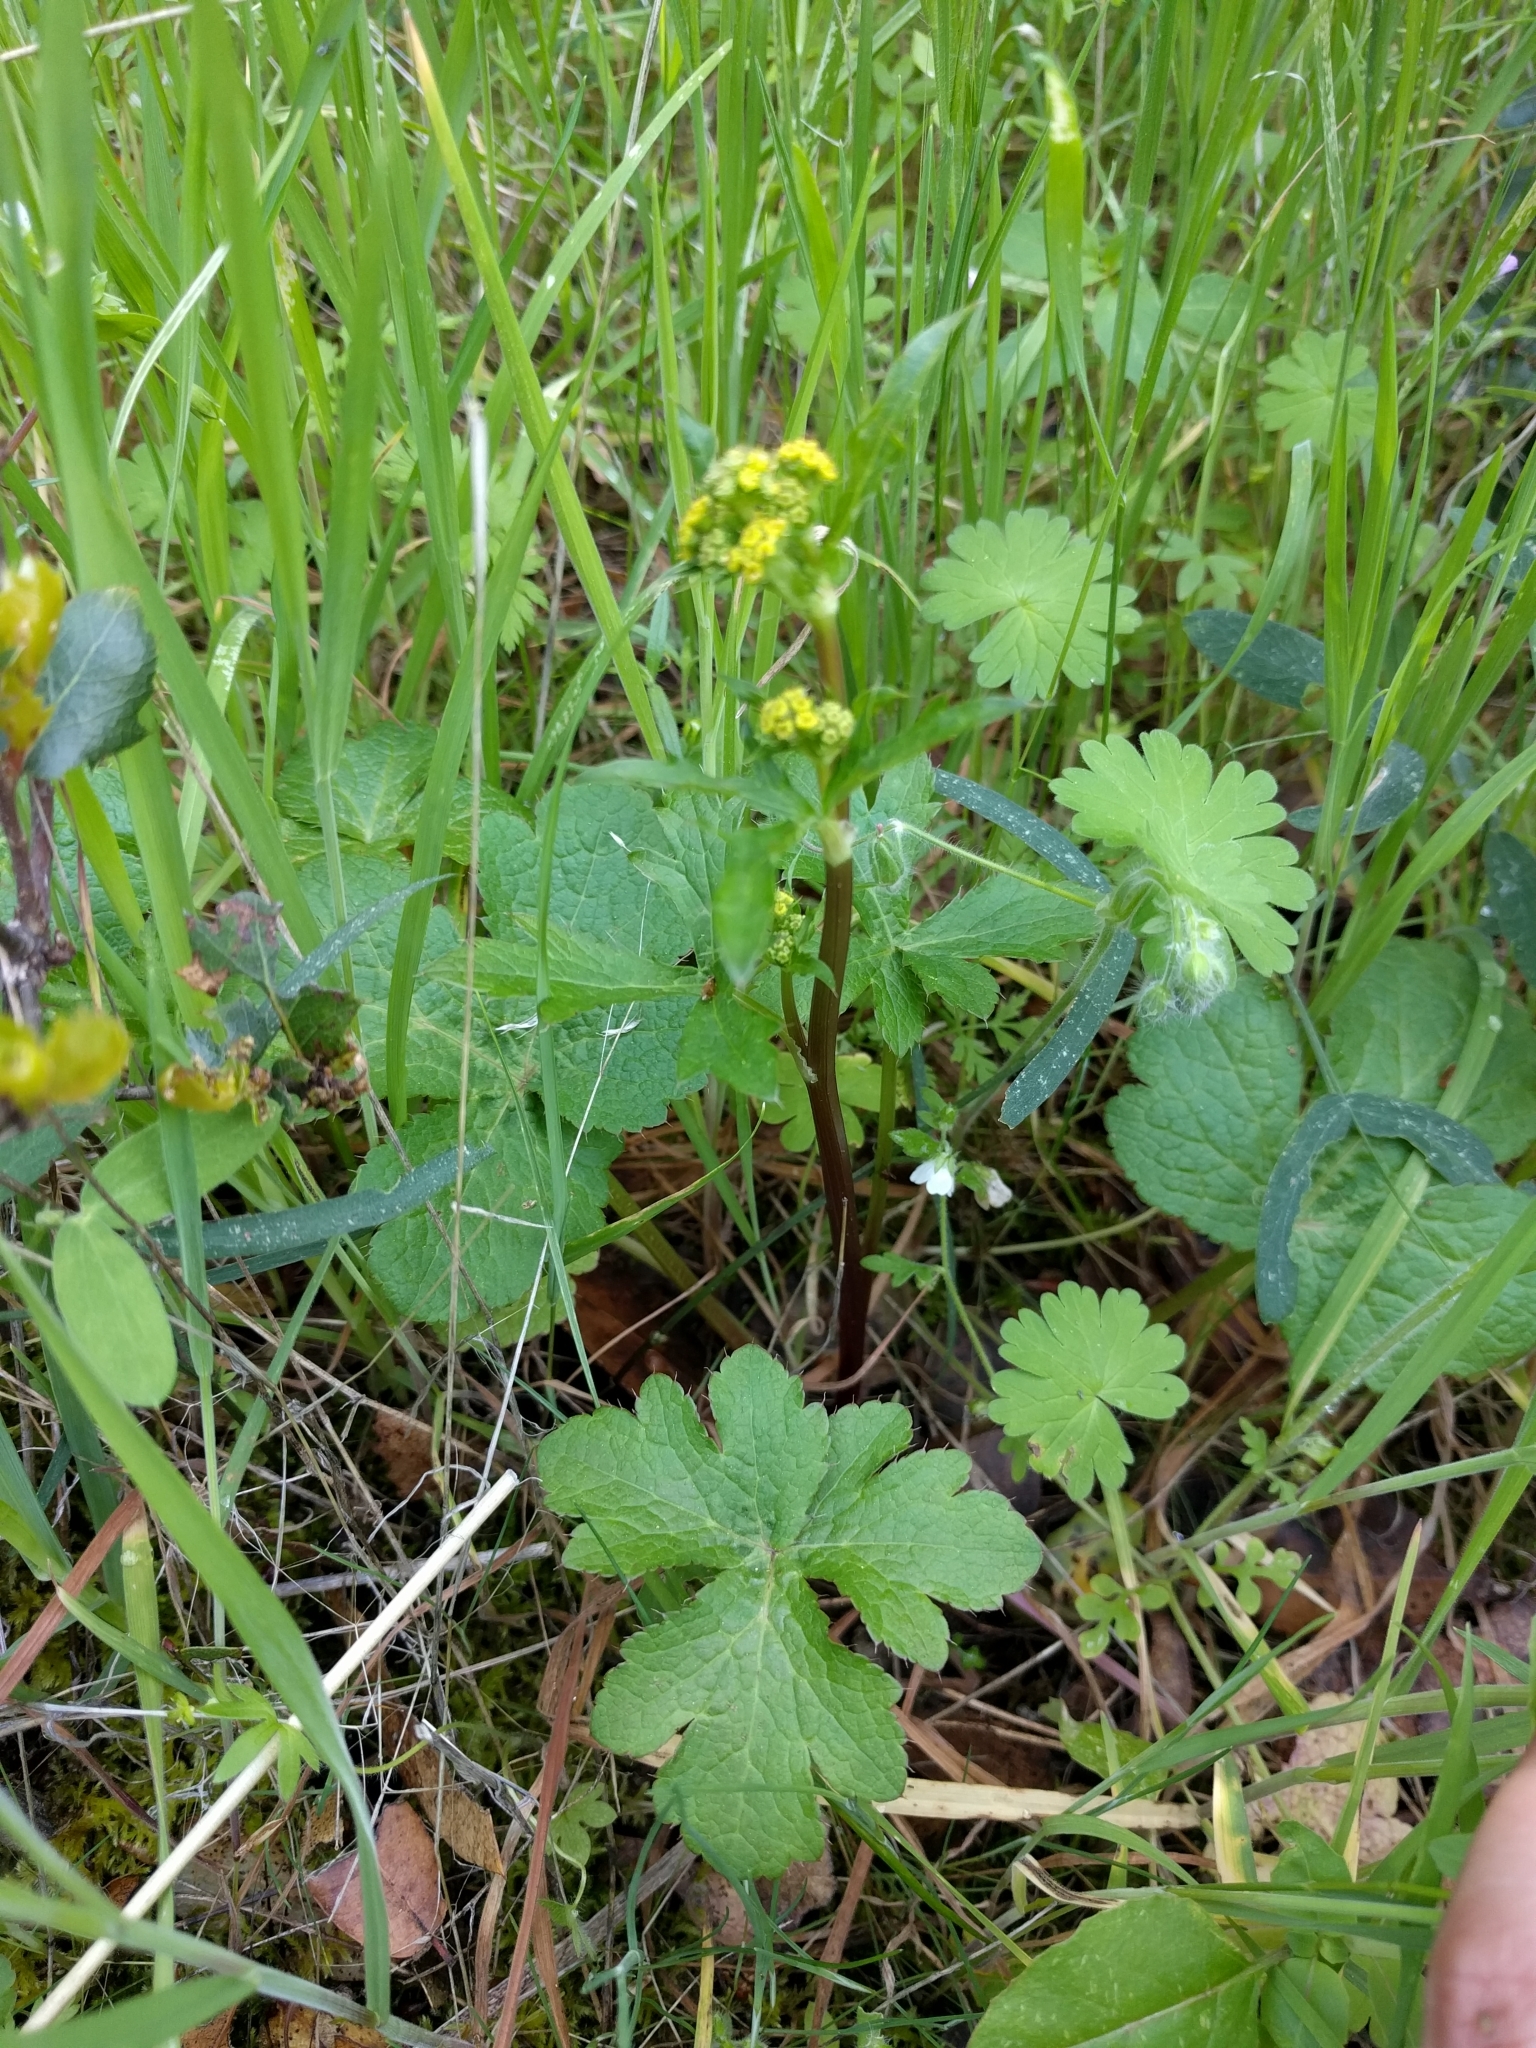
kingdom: Plantae
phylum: Tracheophyta
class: Magnoliopsida
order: Apiales
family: Apiaceae
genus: Sanicula
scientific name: Sanicula crassicaulis
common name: Western snakeroot
